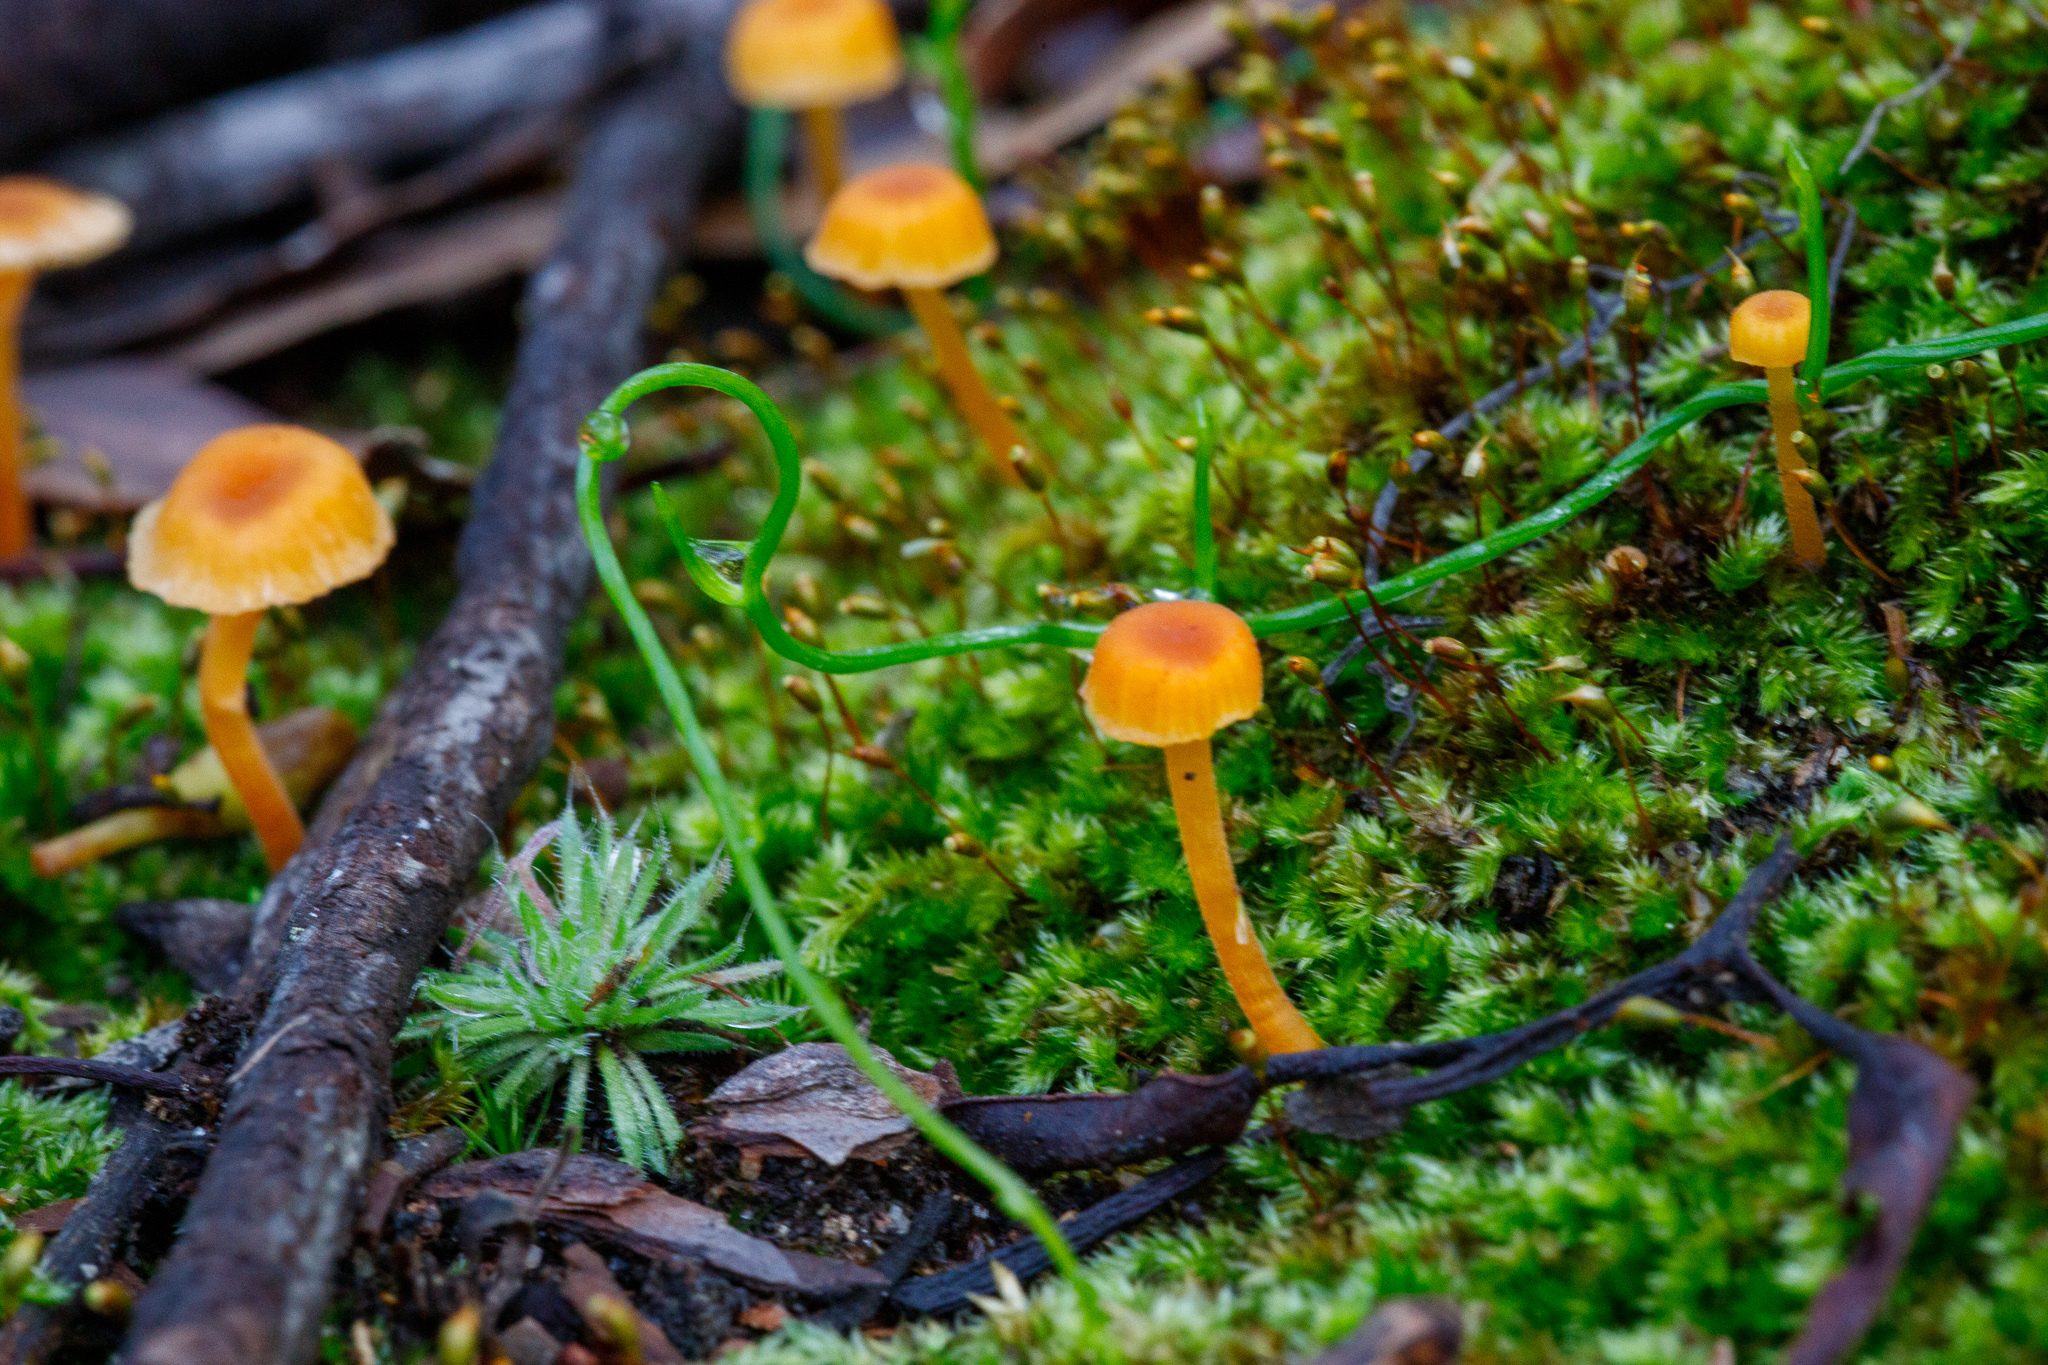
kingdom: Fungi
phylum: Basidiomycota
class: Agaricomycetes
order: Hymenochaetales
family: Rickenellaceae
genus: Rickenella
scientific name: Rickenella fibula
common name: Orange mosscap
